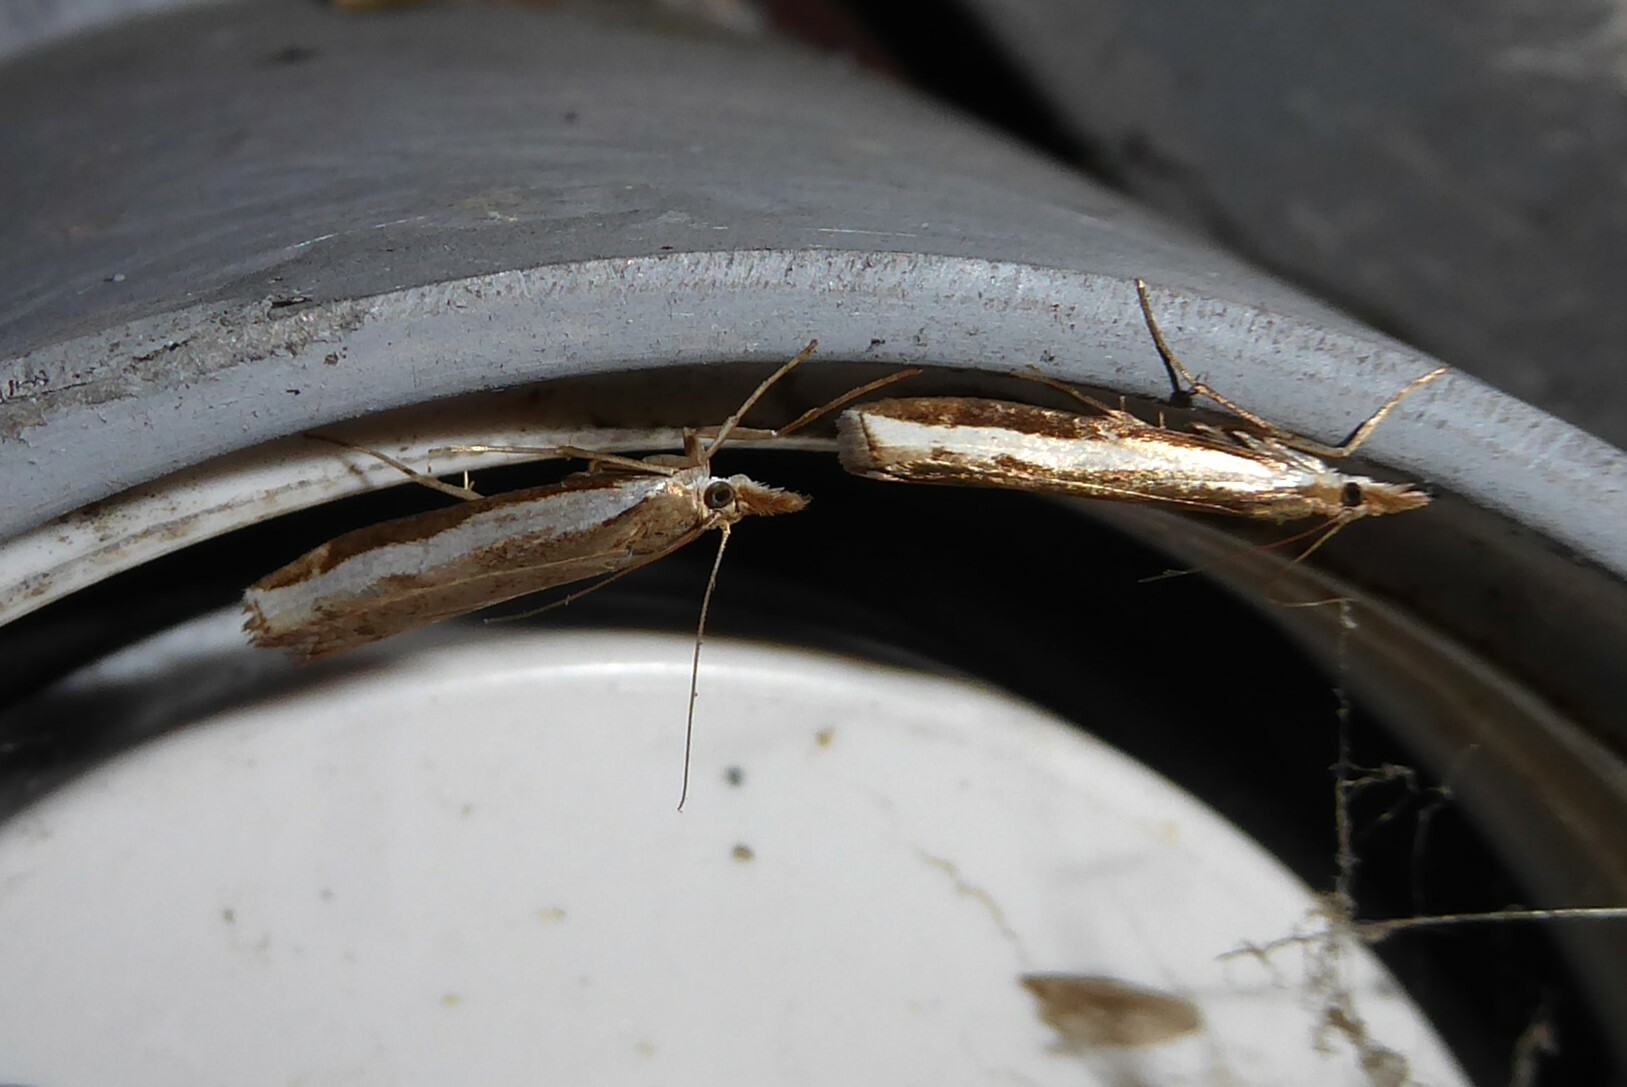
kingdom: Animalia
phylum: Arthropoda
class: Insecta
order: Lepidoptera
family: Crambidae
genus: Orocrambus
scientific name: Orocrambus flexuosellus
